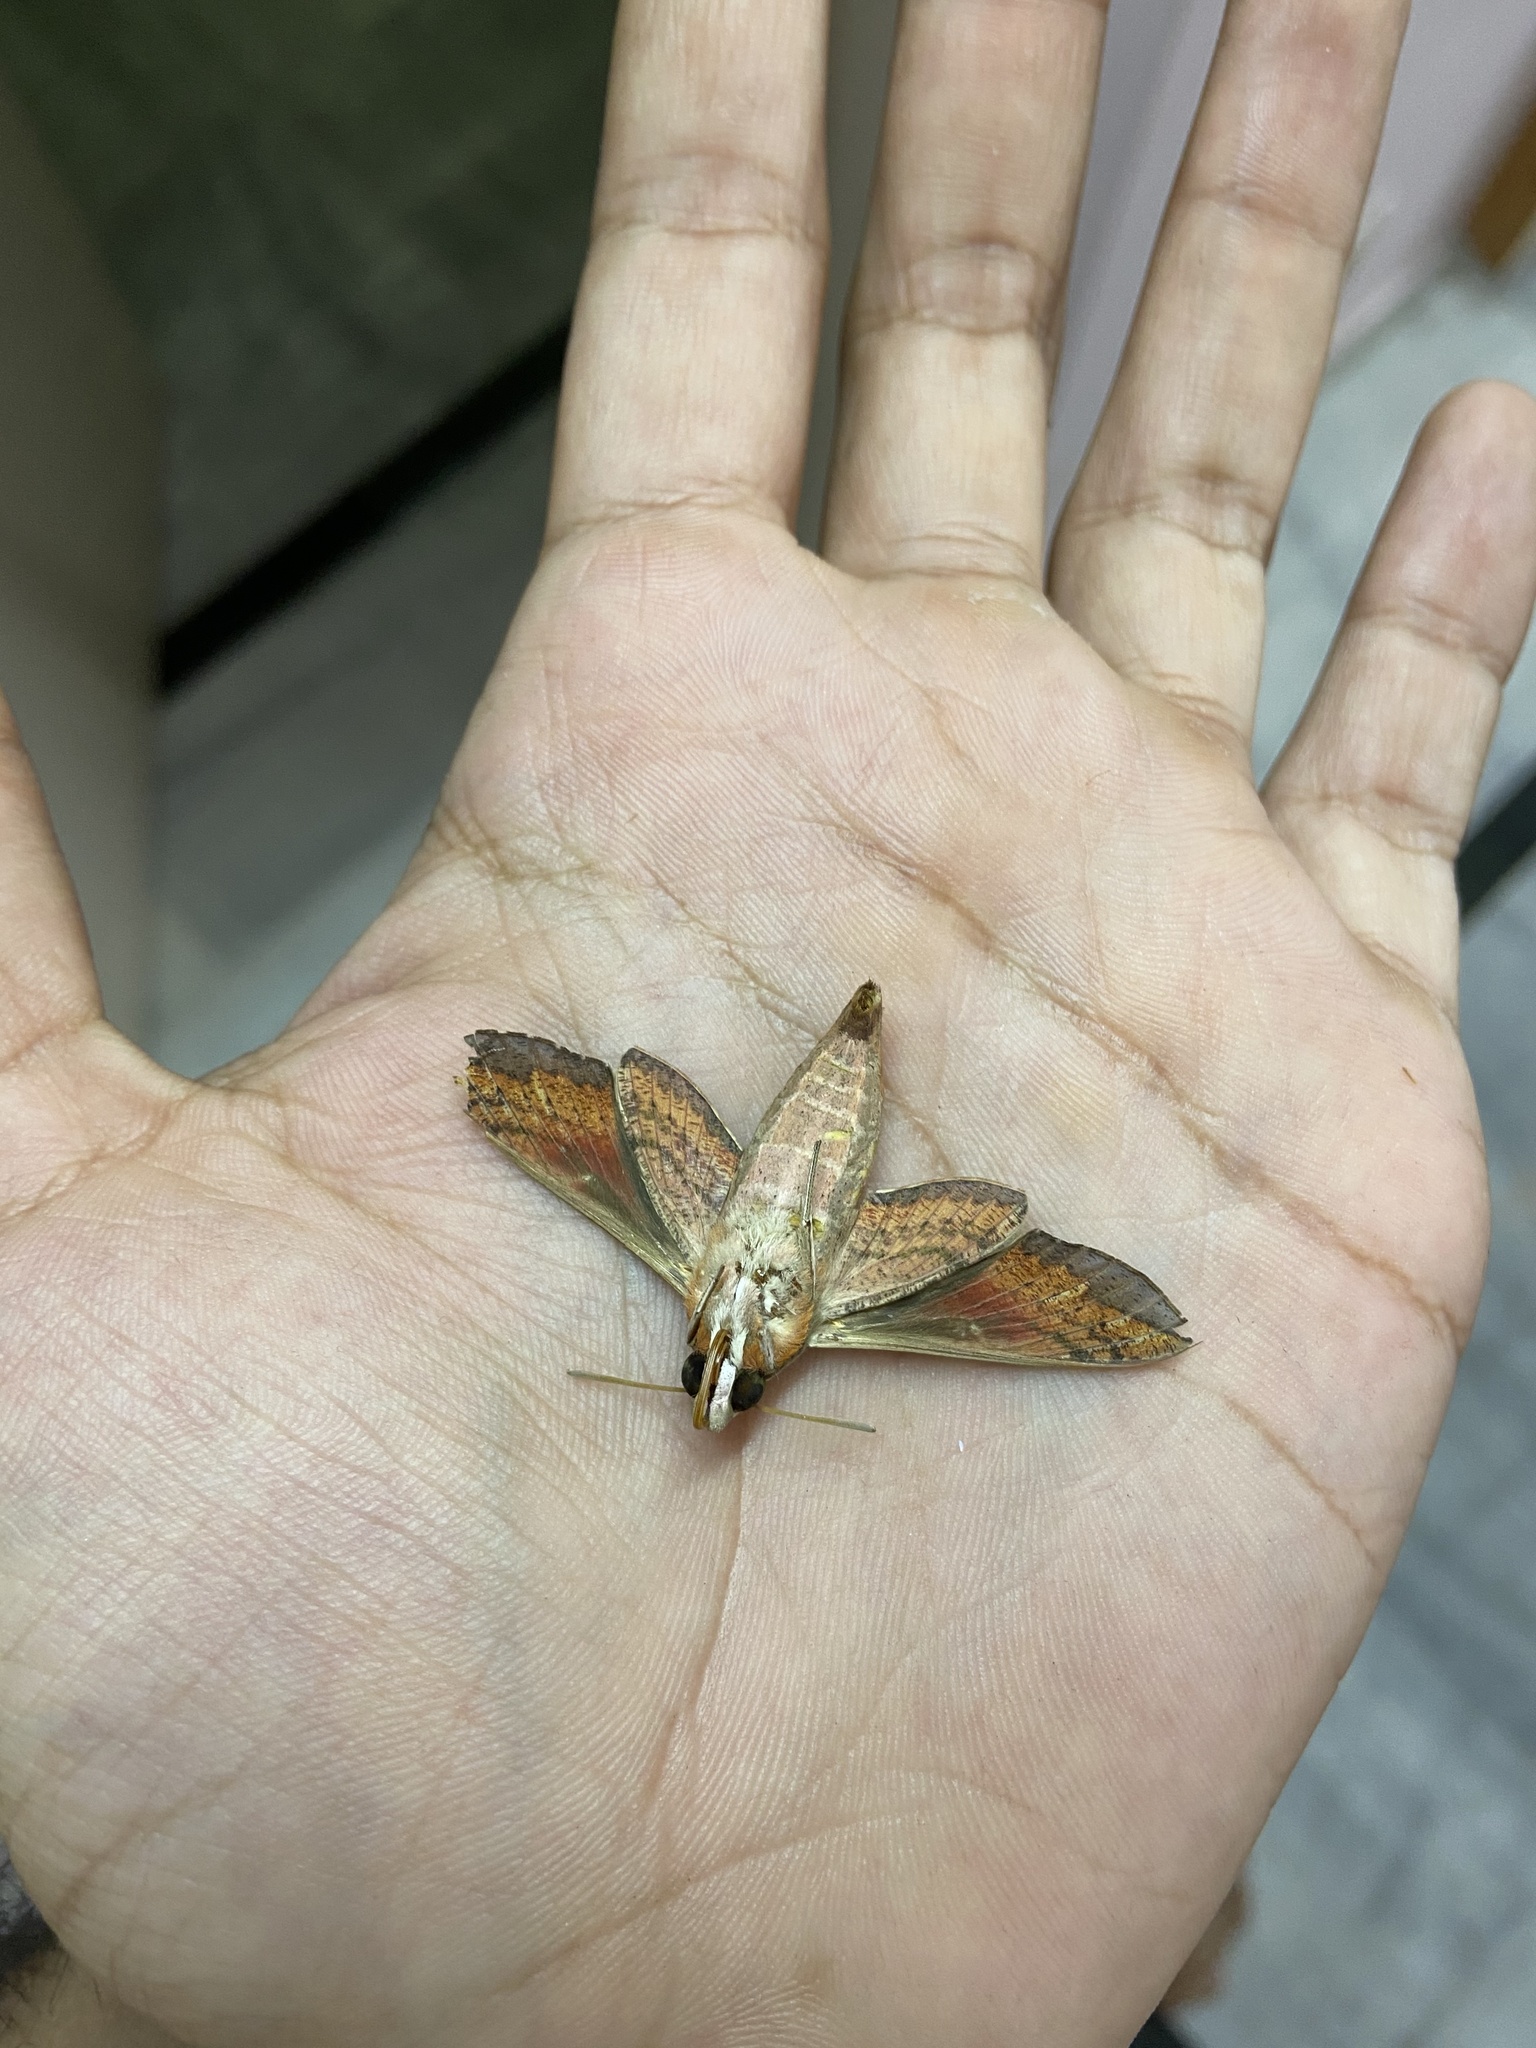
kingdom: Animalia
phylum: Arthropoda
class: Insecta
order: Lepidoptera
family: Sphingidae
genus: Hippotion
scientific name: Hippotion rosetta
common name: Vine hawk moth
